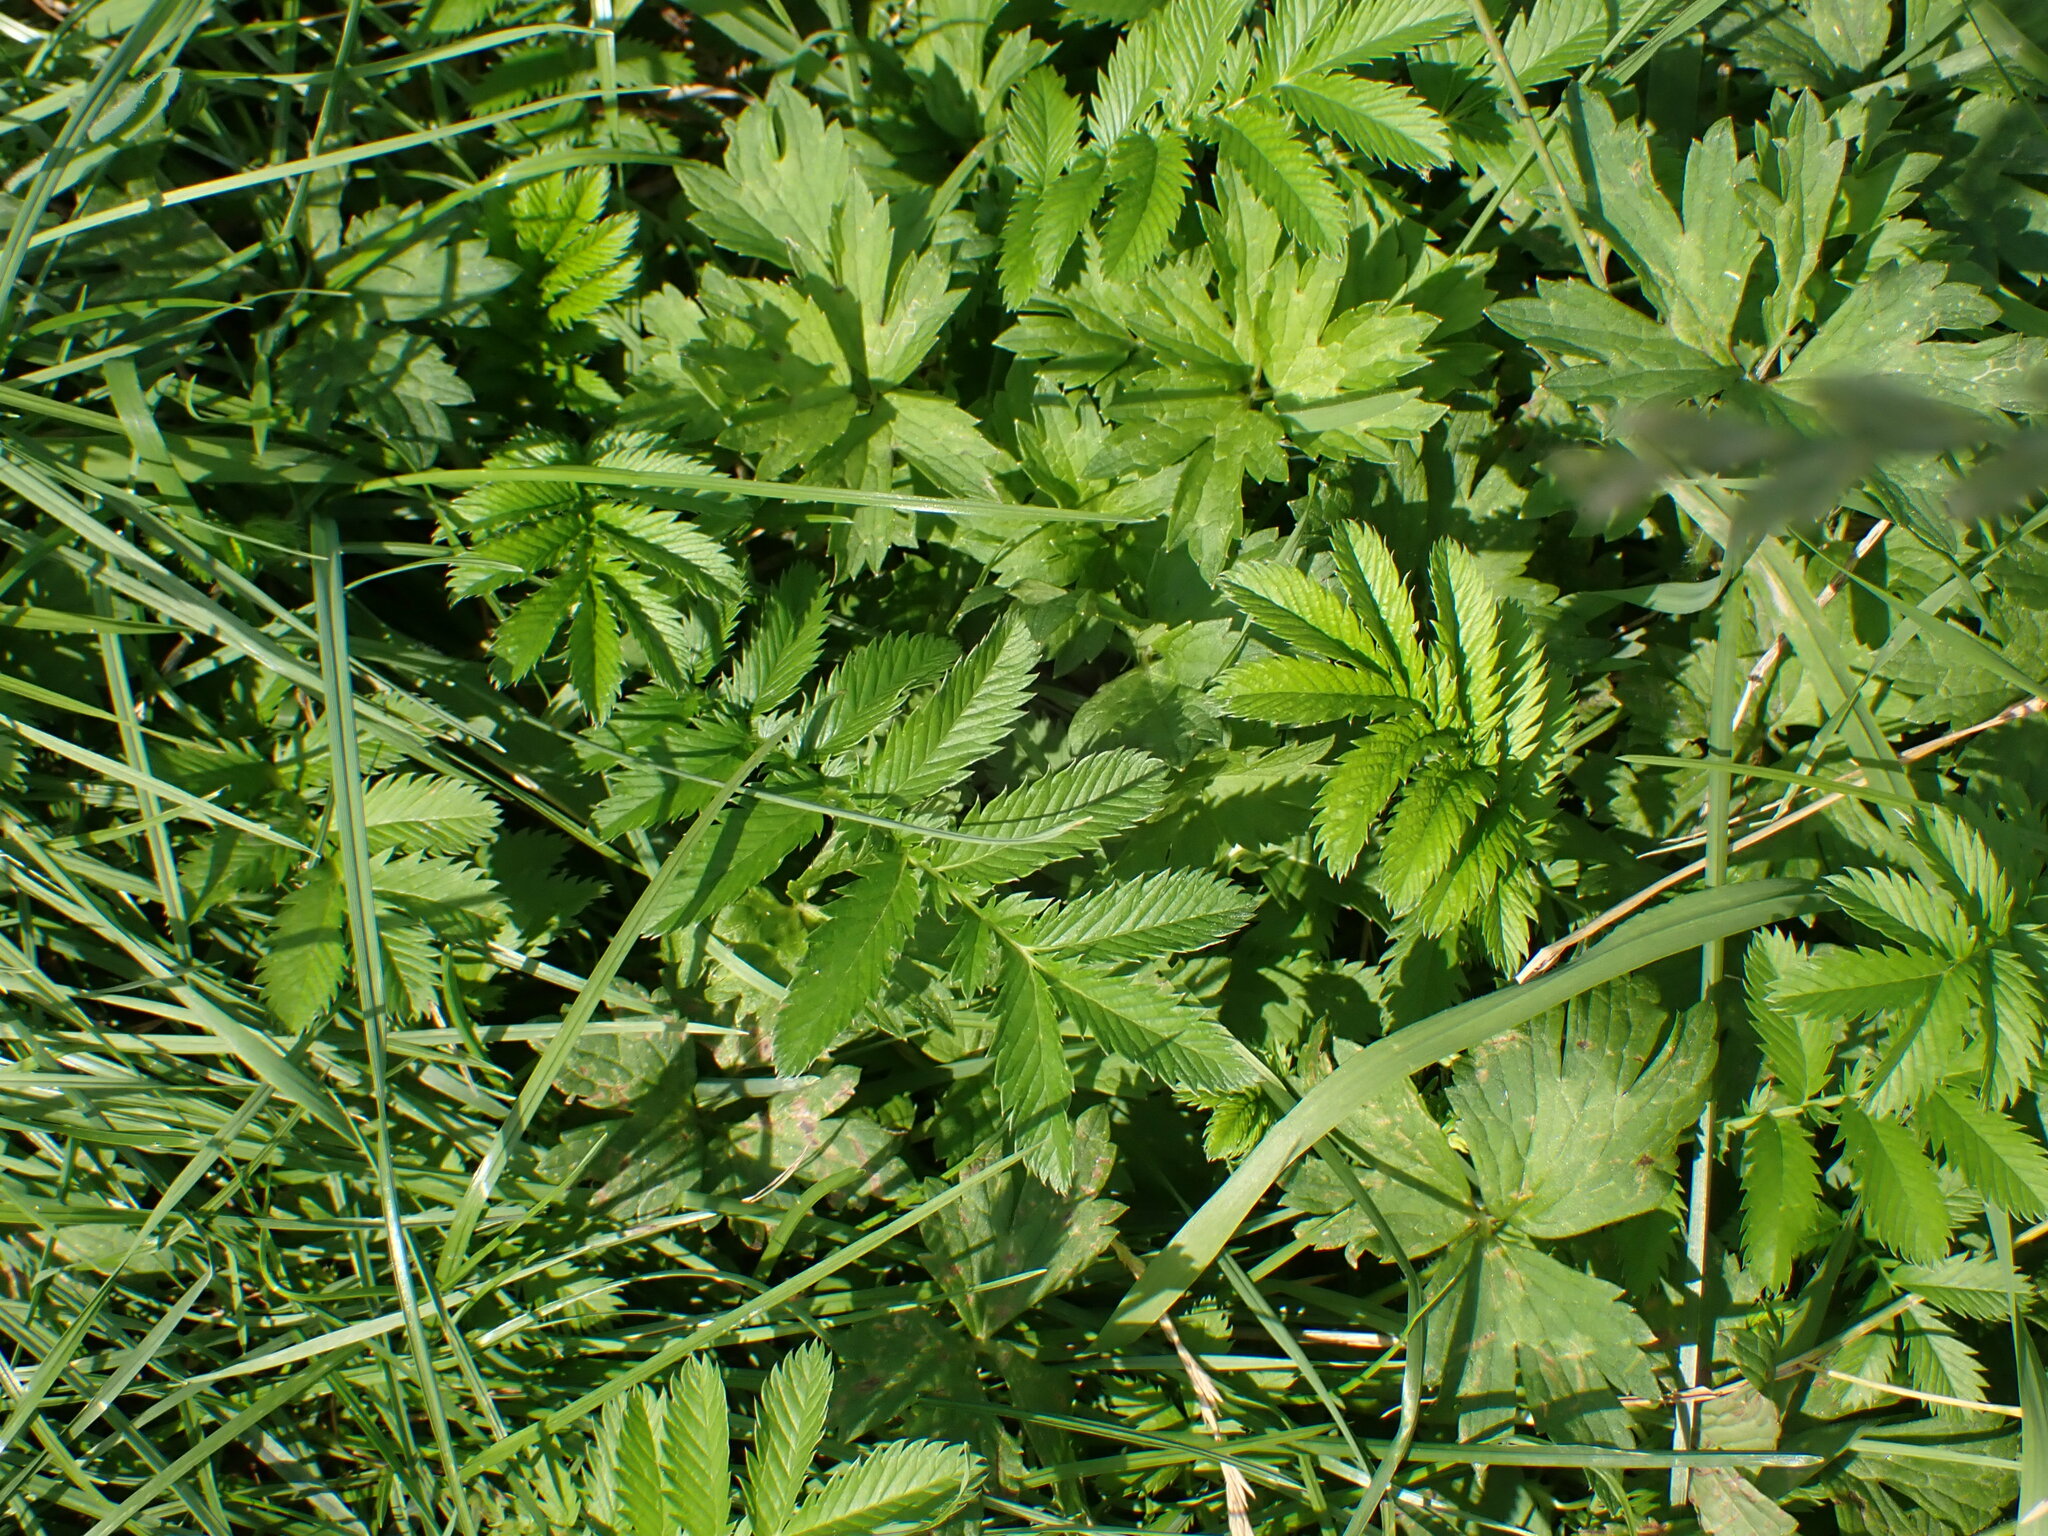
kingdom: Plantae
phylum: Tracheophyta
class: Magnoliopsida
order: Rosales
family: Rosaceae
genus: Argentina
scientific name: Argentina anserina
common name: Common silverweed
